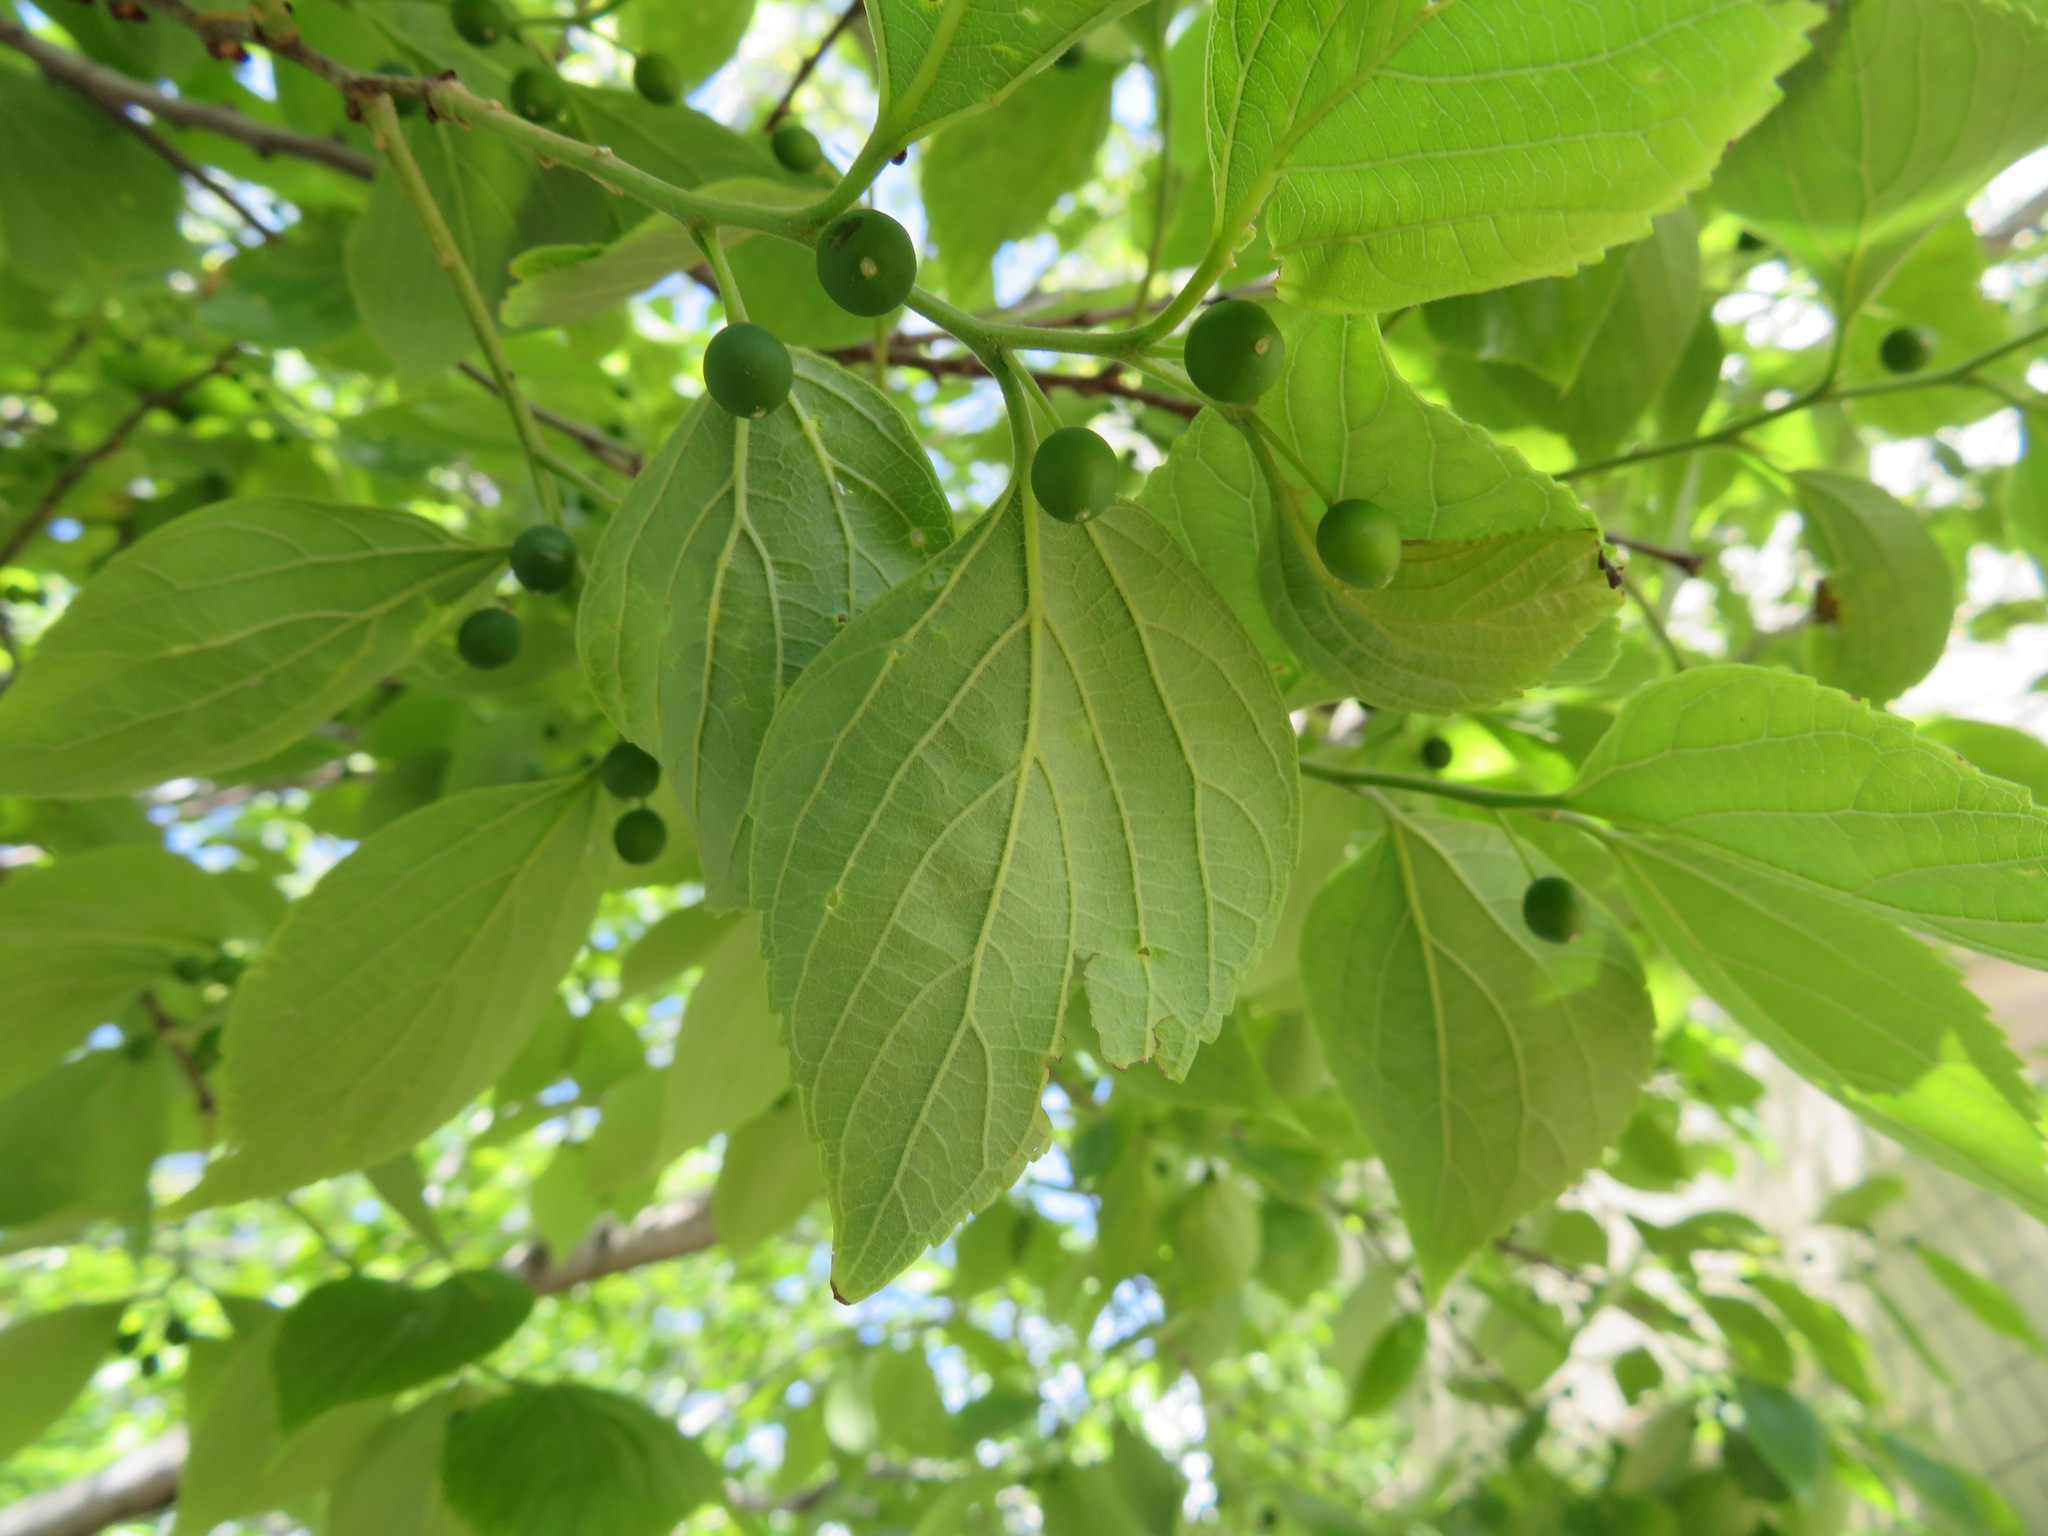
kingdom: Plantae
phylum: Tracheophyta
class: Magnoliopsida
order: Rosales
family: Cannabaceae
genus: Celtis
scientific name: Celtis sinensis
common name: Chinese hackberry
